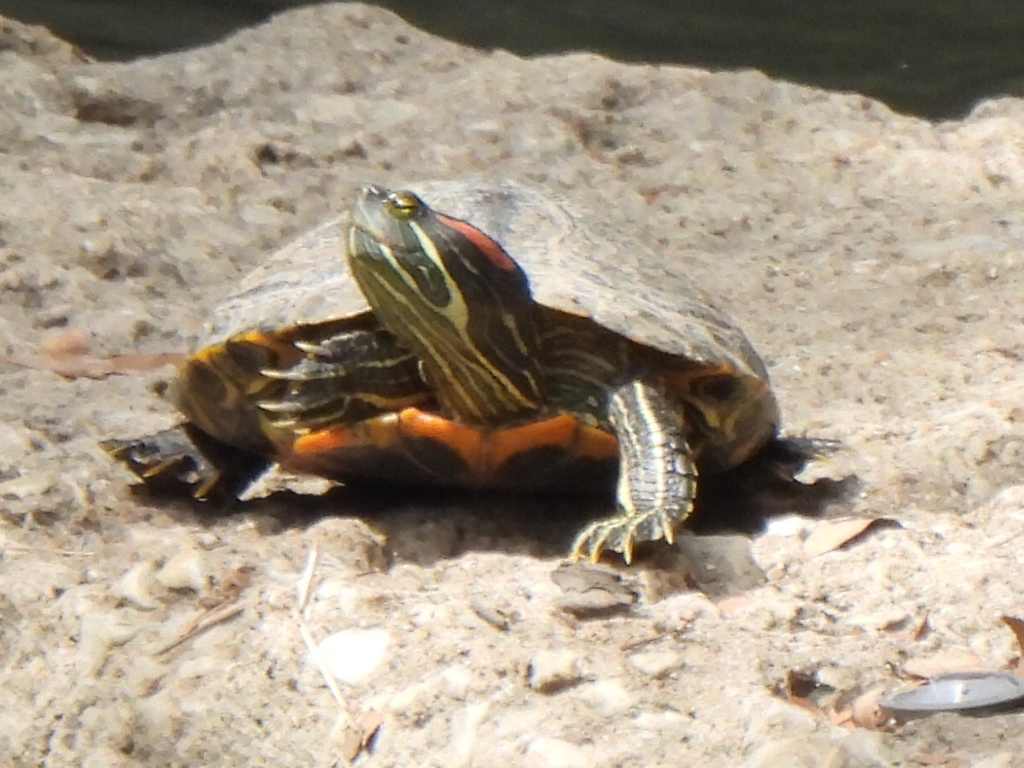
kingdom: Animalia
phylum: Chordata
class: Testudines
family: Emydidae
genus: Trachemys
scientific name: Trachemys scripta
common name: Slider
